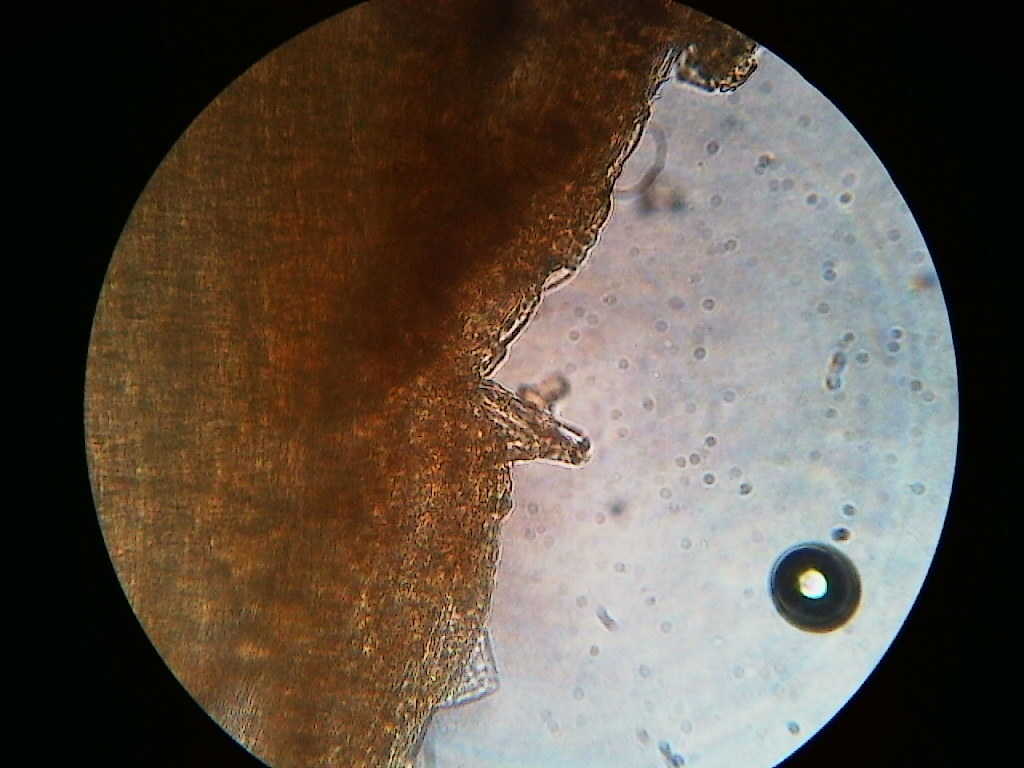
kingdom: Fungi
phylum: Basidiomycota
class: Agaricomycetes
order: Agaricales
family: Inocybaceae
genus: Inocybe
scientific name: Inocybe stellatospora
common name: Woolly fibrecap
